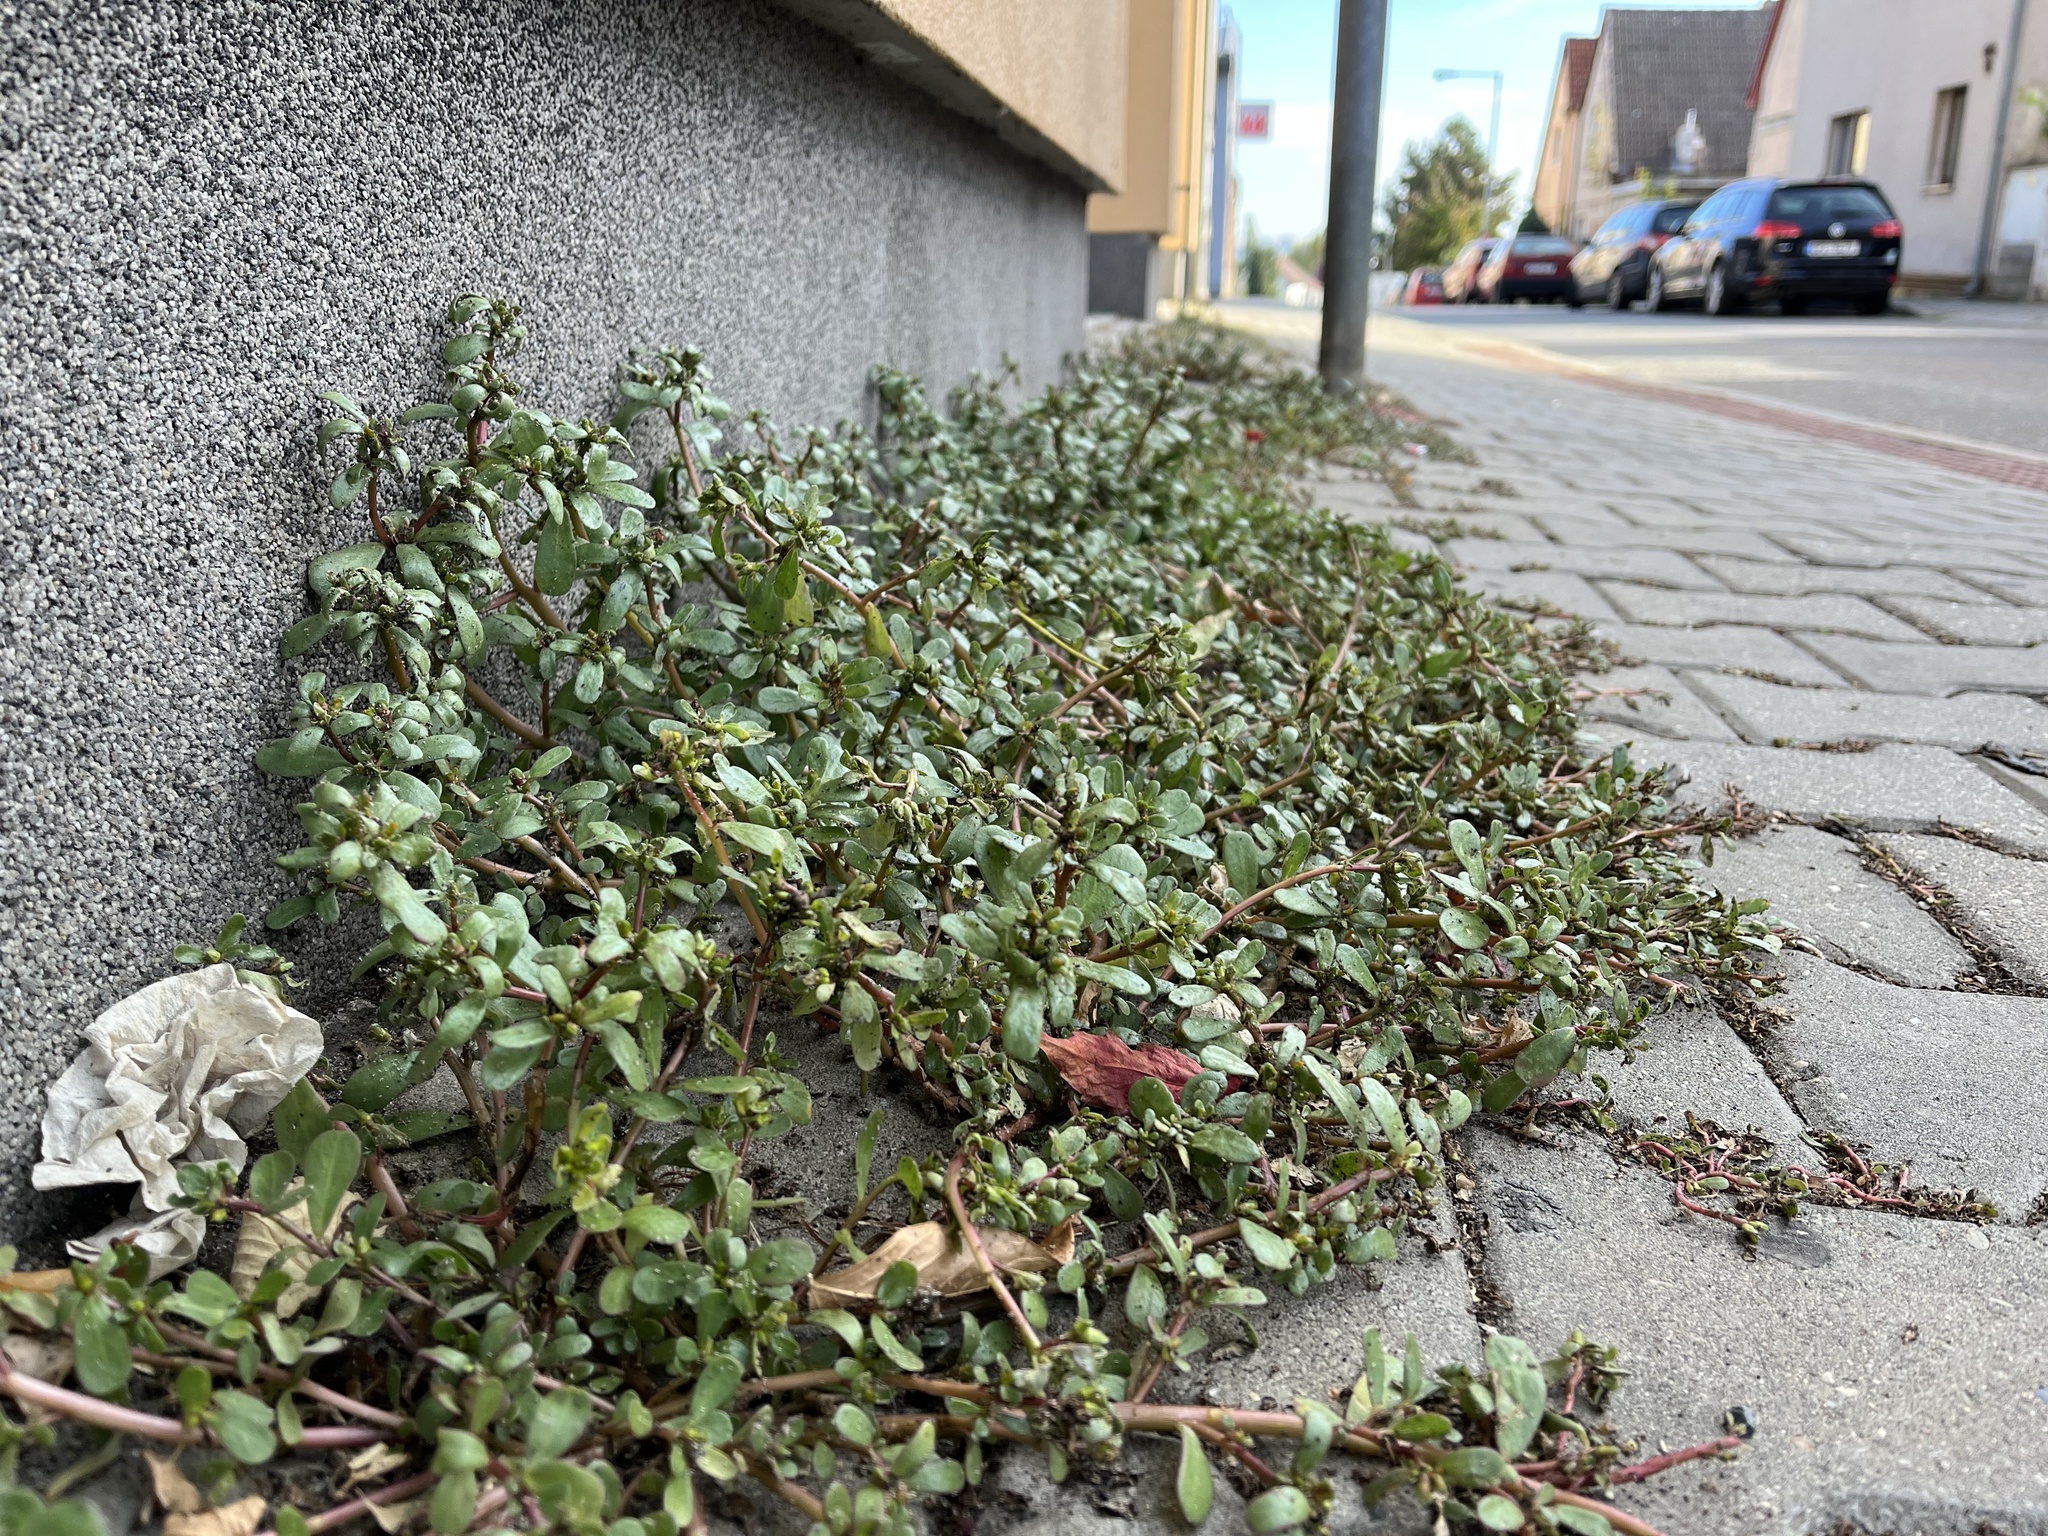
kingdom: Plantae
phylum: Tracheophyta
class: Magnoliopsida
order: Caryophyllales
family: Portulacaceae
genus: Portulaca
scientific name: Portulaca oleracea
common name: Common purslane
